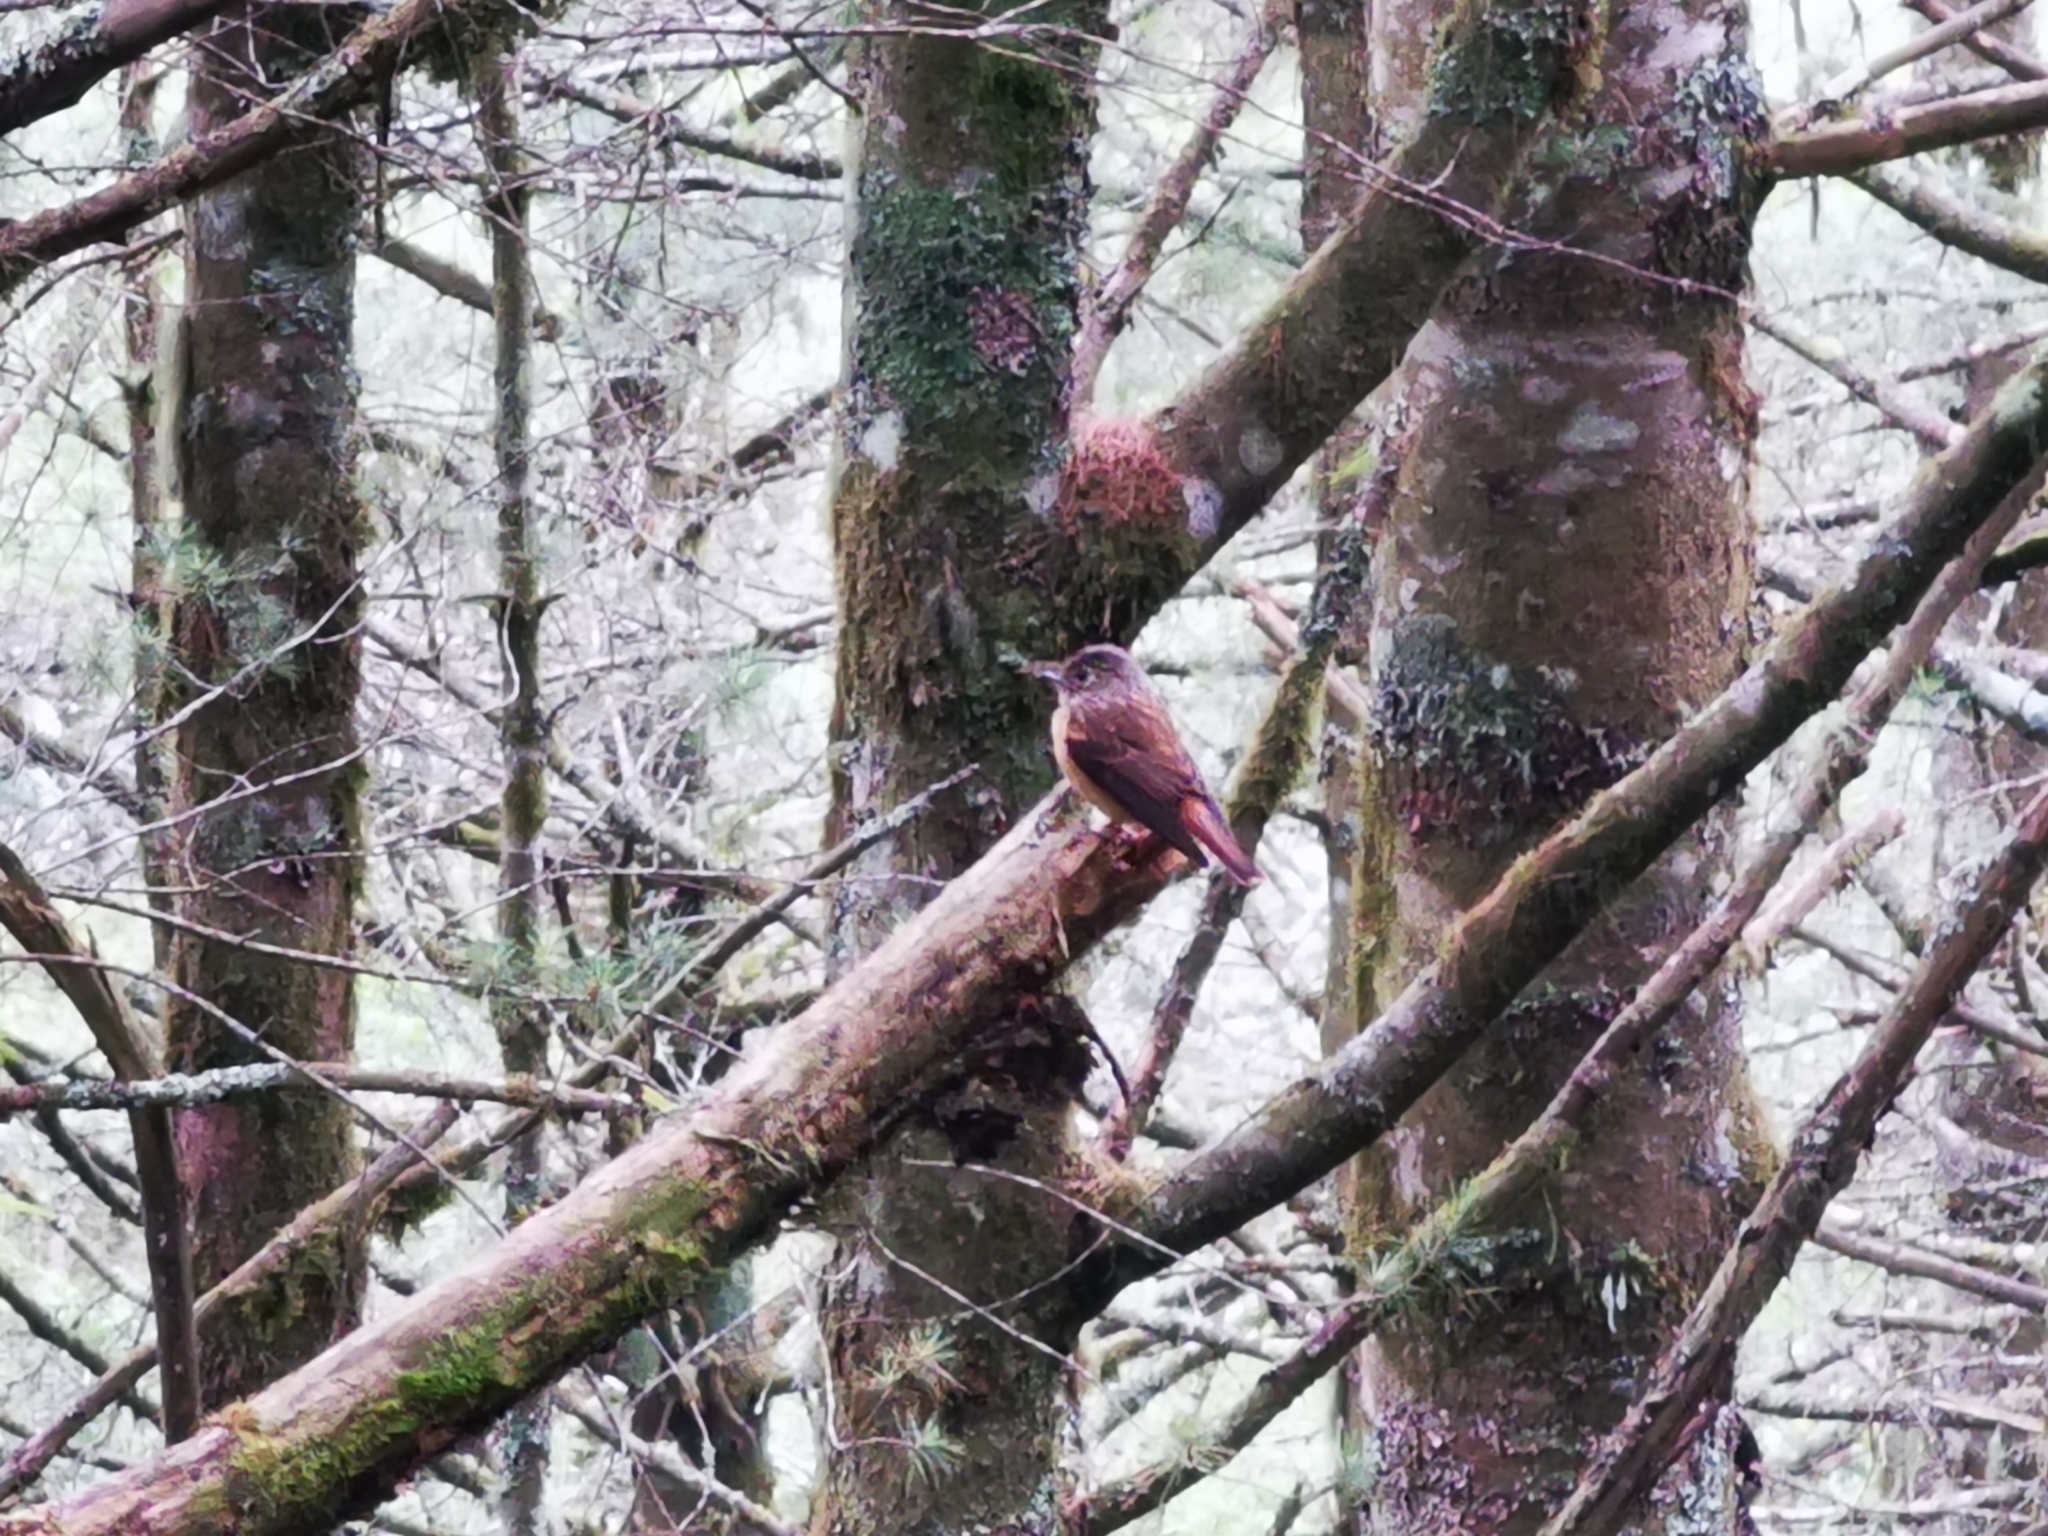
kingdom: Animalia
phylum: Chordata
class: Aves
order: Passeriformes
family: Muscicapidae
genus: Muscicapa
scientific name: Muscicapa ferruginea
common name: Ferruginous flycatcher
